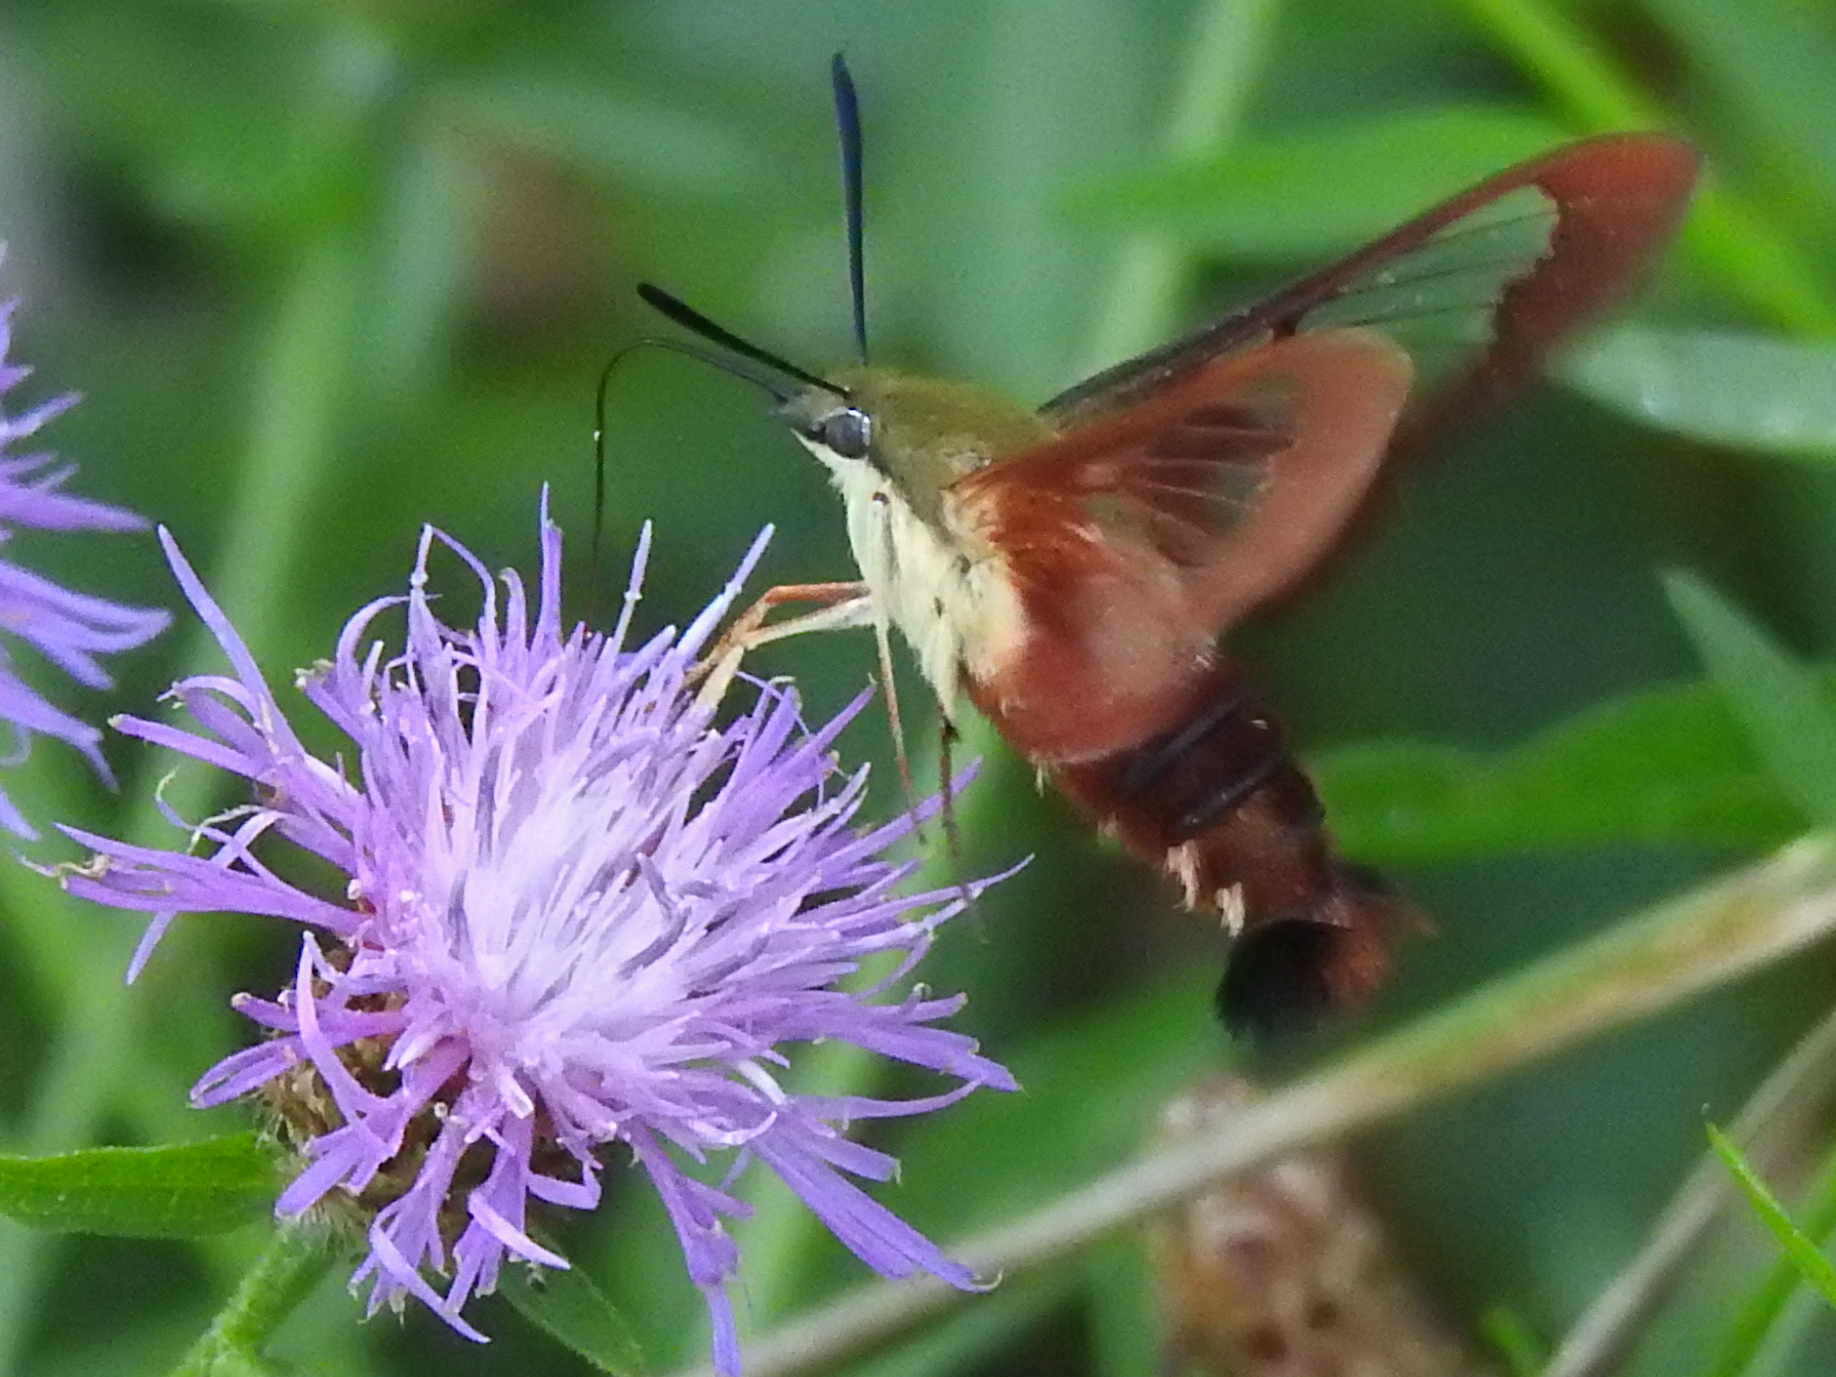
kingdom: Animalia
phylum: Arthropoda
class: Insecta
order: Lepidoptera
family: Sphingidae
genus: Hemaris
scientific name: Hemaris thysbe
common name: Common clear-wing
